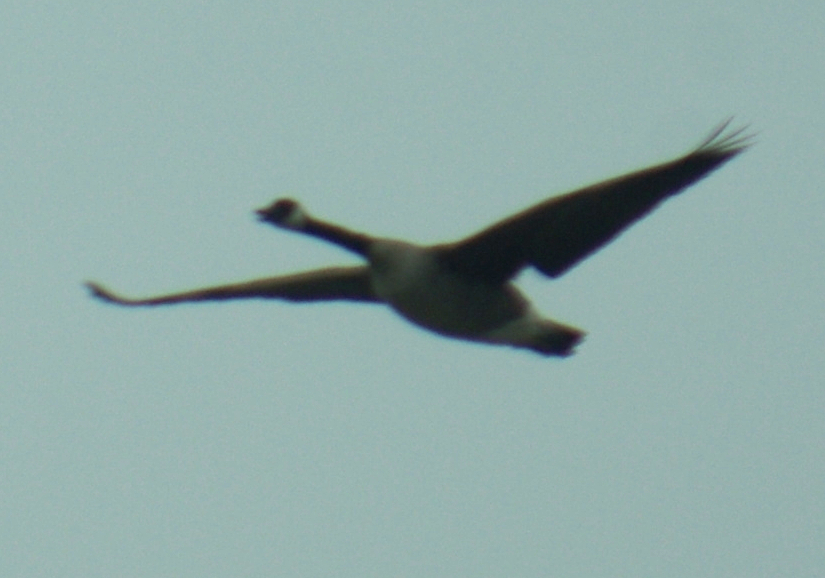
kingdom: Animalia
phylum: Chordata
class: Aves
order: Anseriformes
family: Anatidae
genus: Branta
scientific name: Branta canadensis
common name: Canada goose
